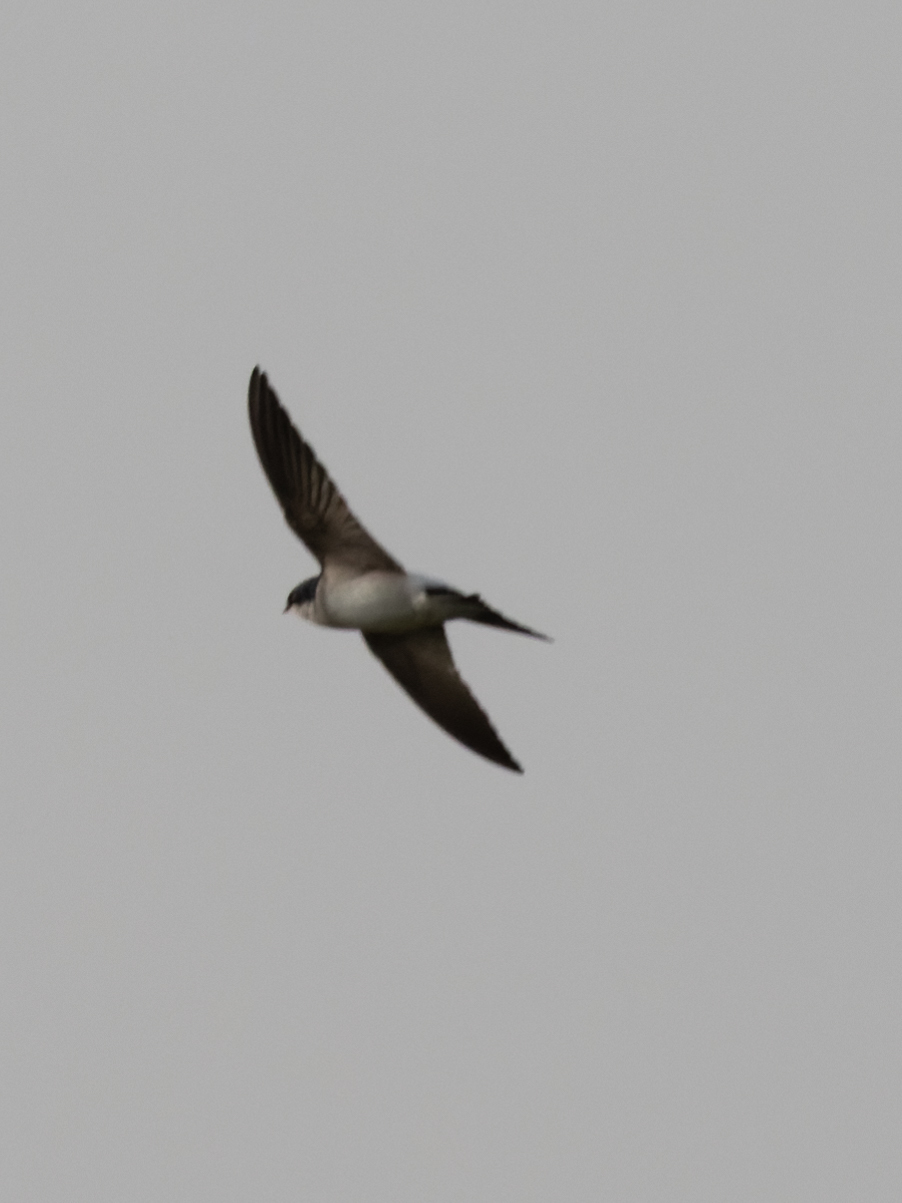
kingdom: Animalia
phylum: Chordata
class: Aves
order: Passeriformes
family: Hirundinidae
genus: Delichon
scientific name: Delichon urbicum
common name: Common house martin
